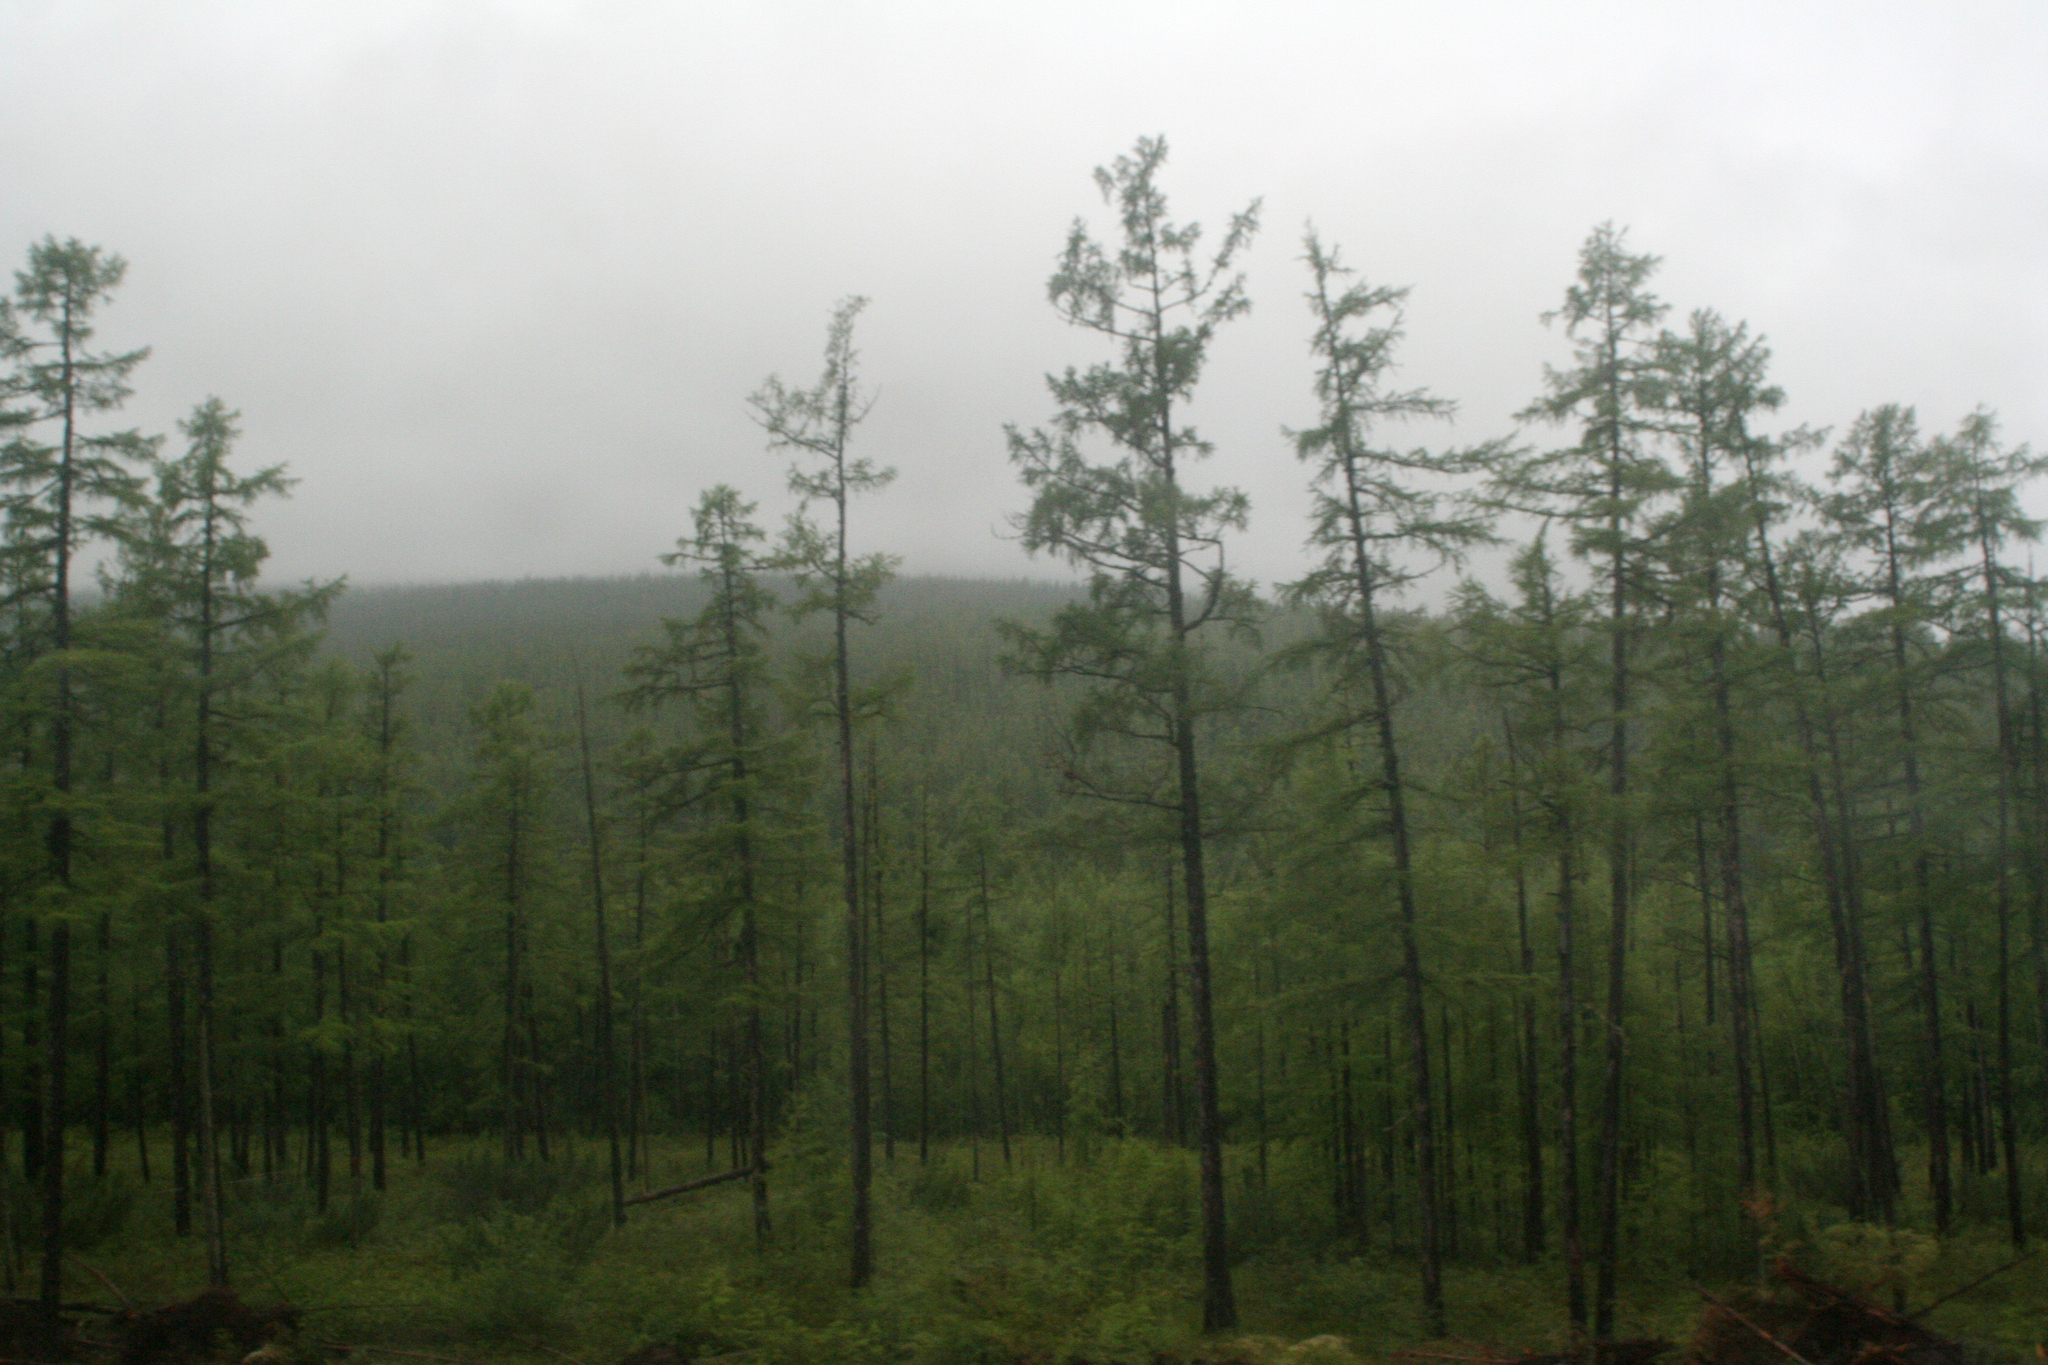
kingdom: Plantae
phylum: Tracheophyta
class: Pinopsida
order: Pinales
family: Pinaceae
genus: Larix
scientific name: Larix gmelinii
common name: Dahurian larch
